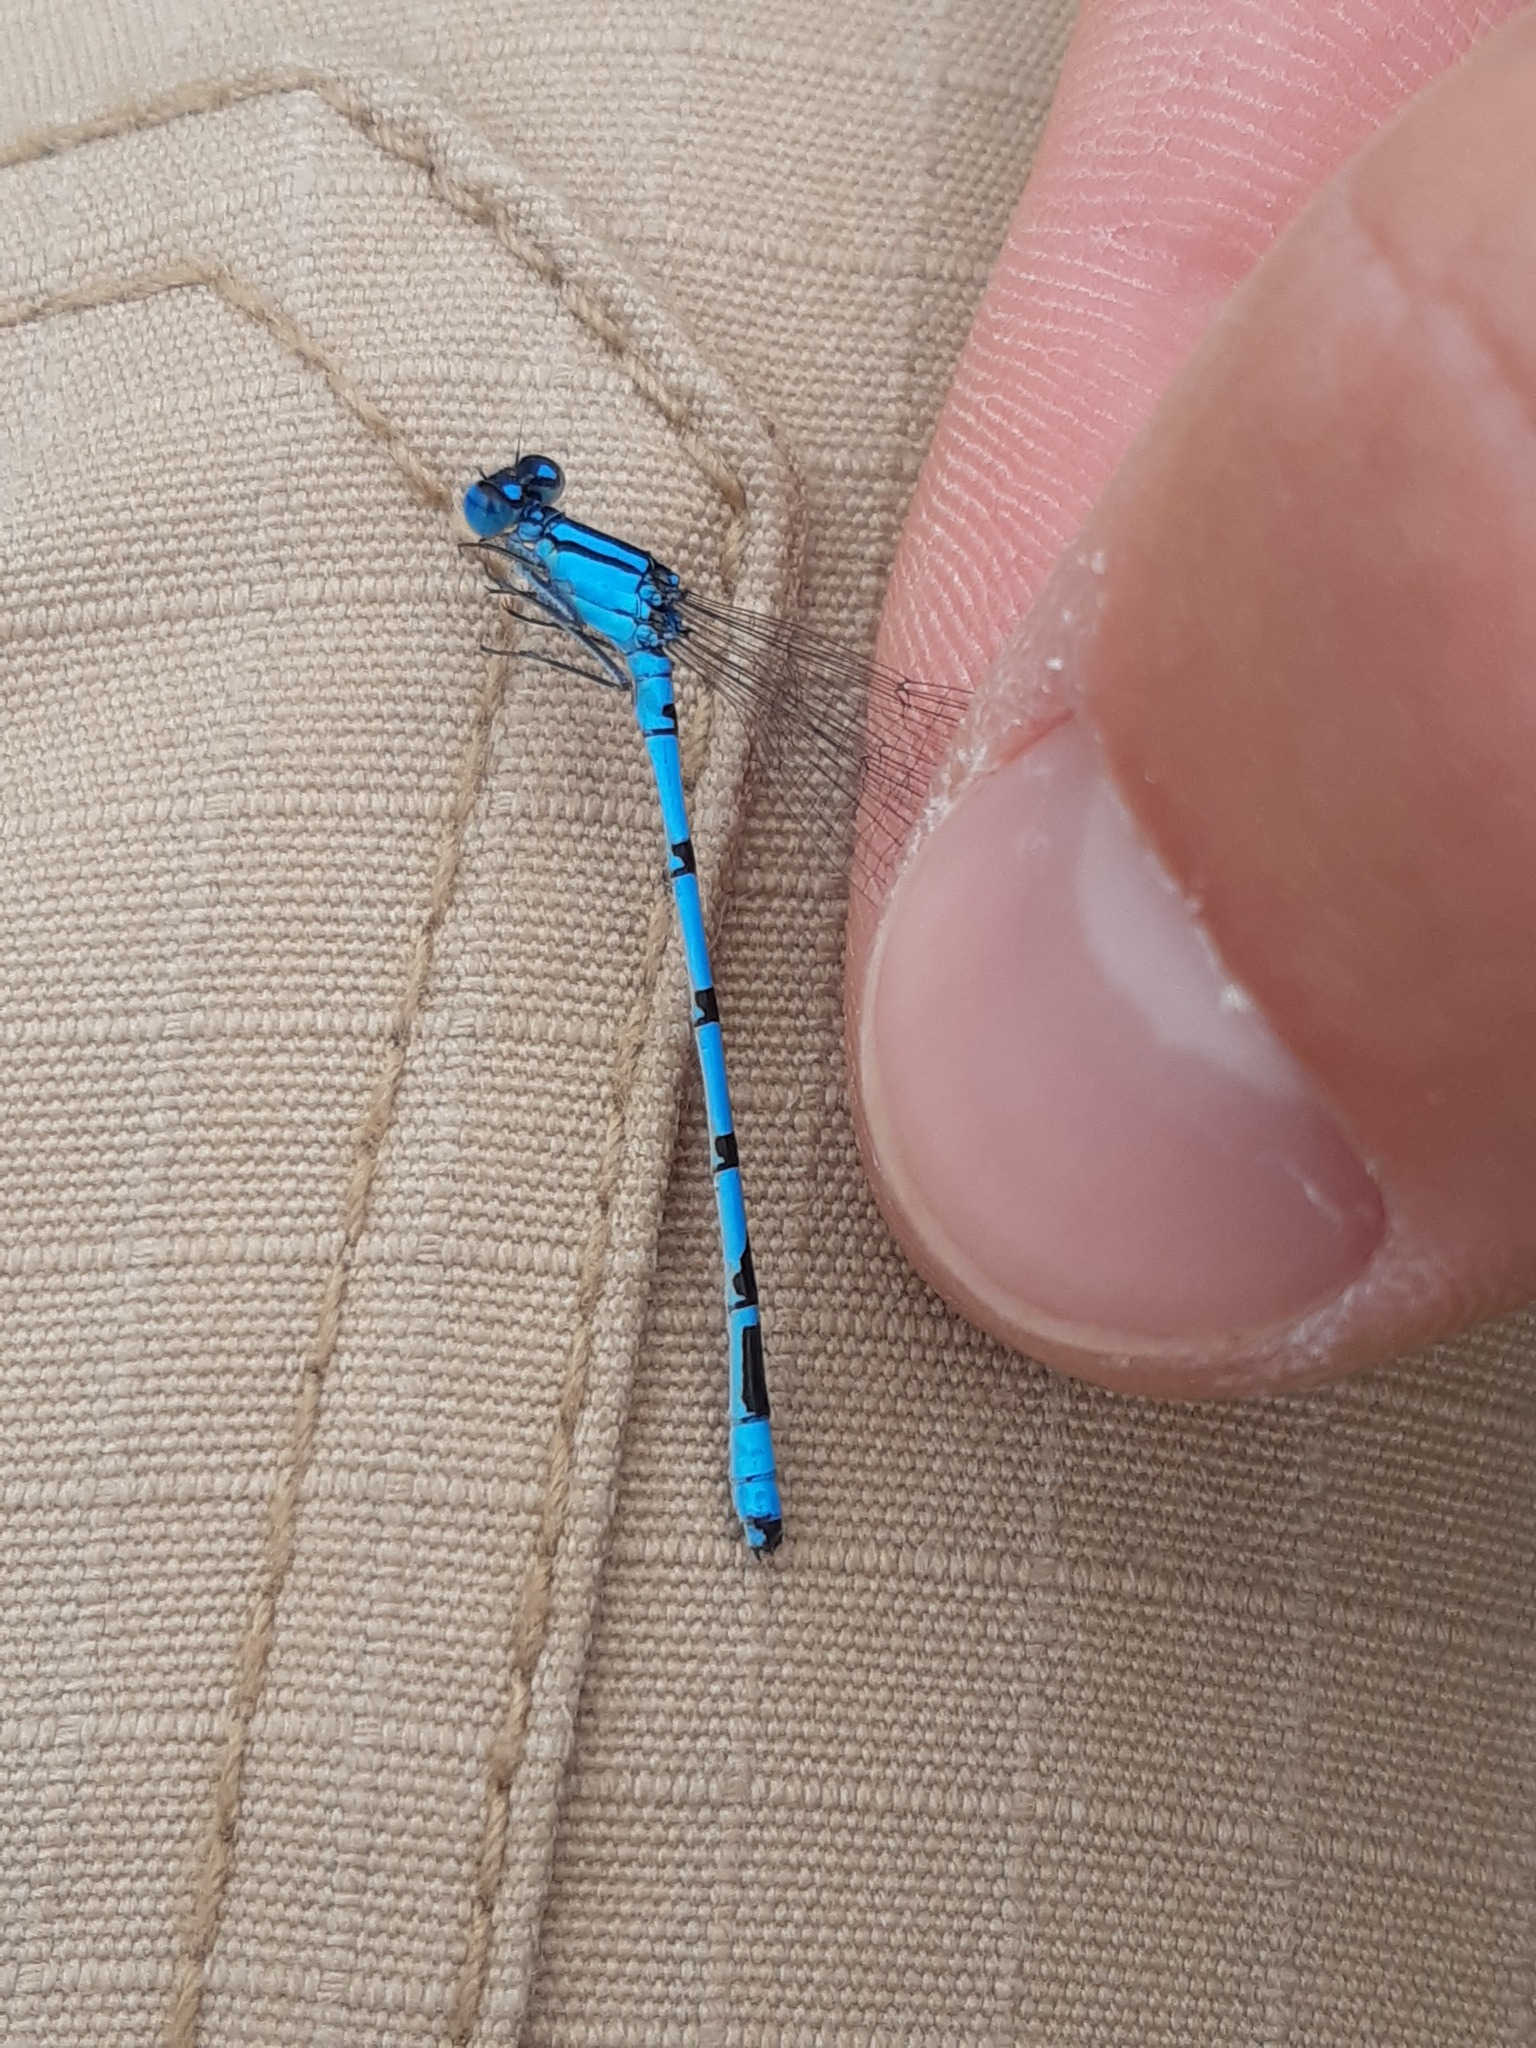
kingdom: Animalia
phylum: Arthropoda
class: Insecta
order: Odonata
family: Coenagrionidae
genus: Enallagma
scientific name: Enallagma cyathigerum
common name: Common blue damselfly
